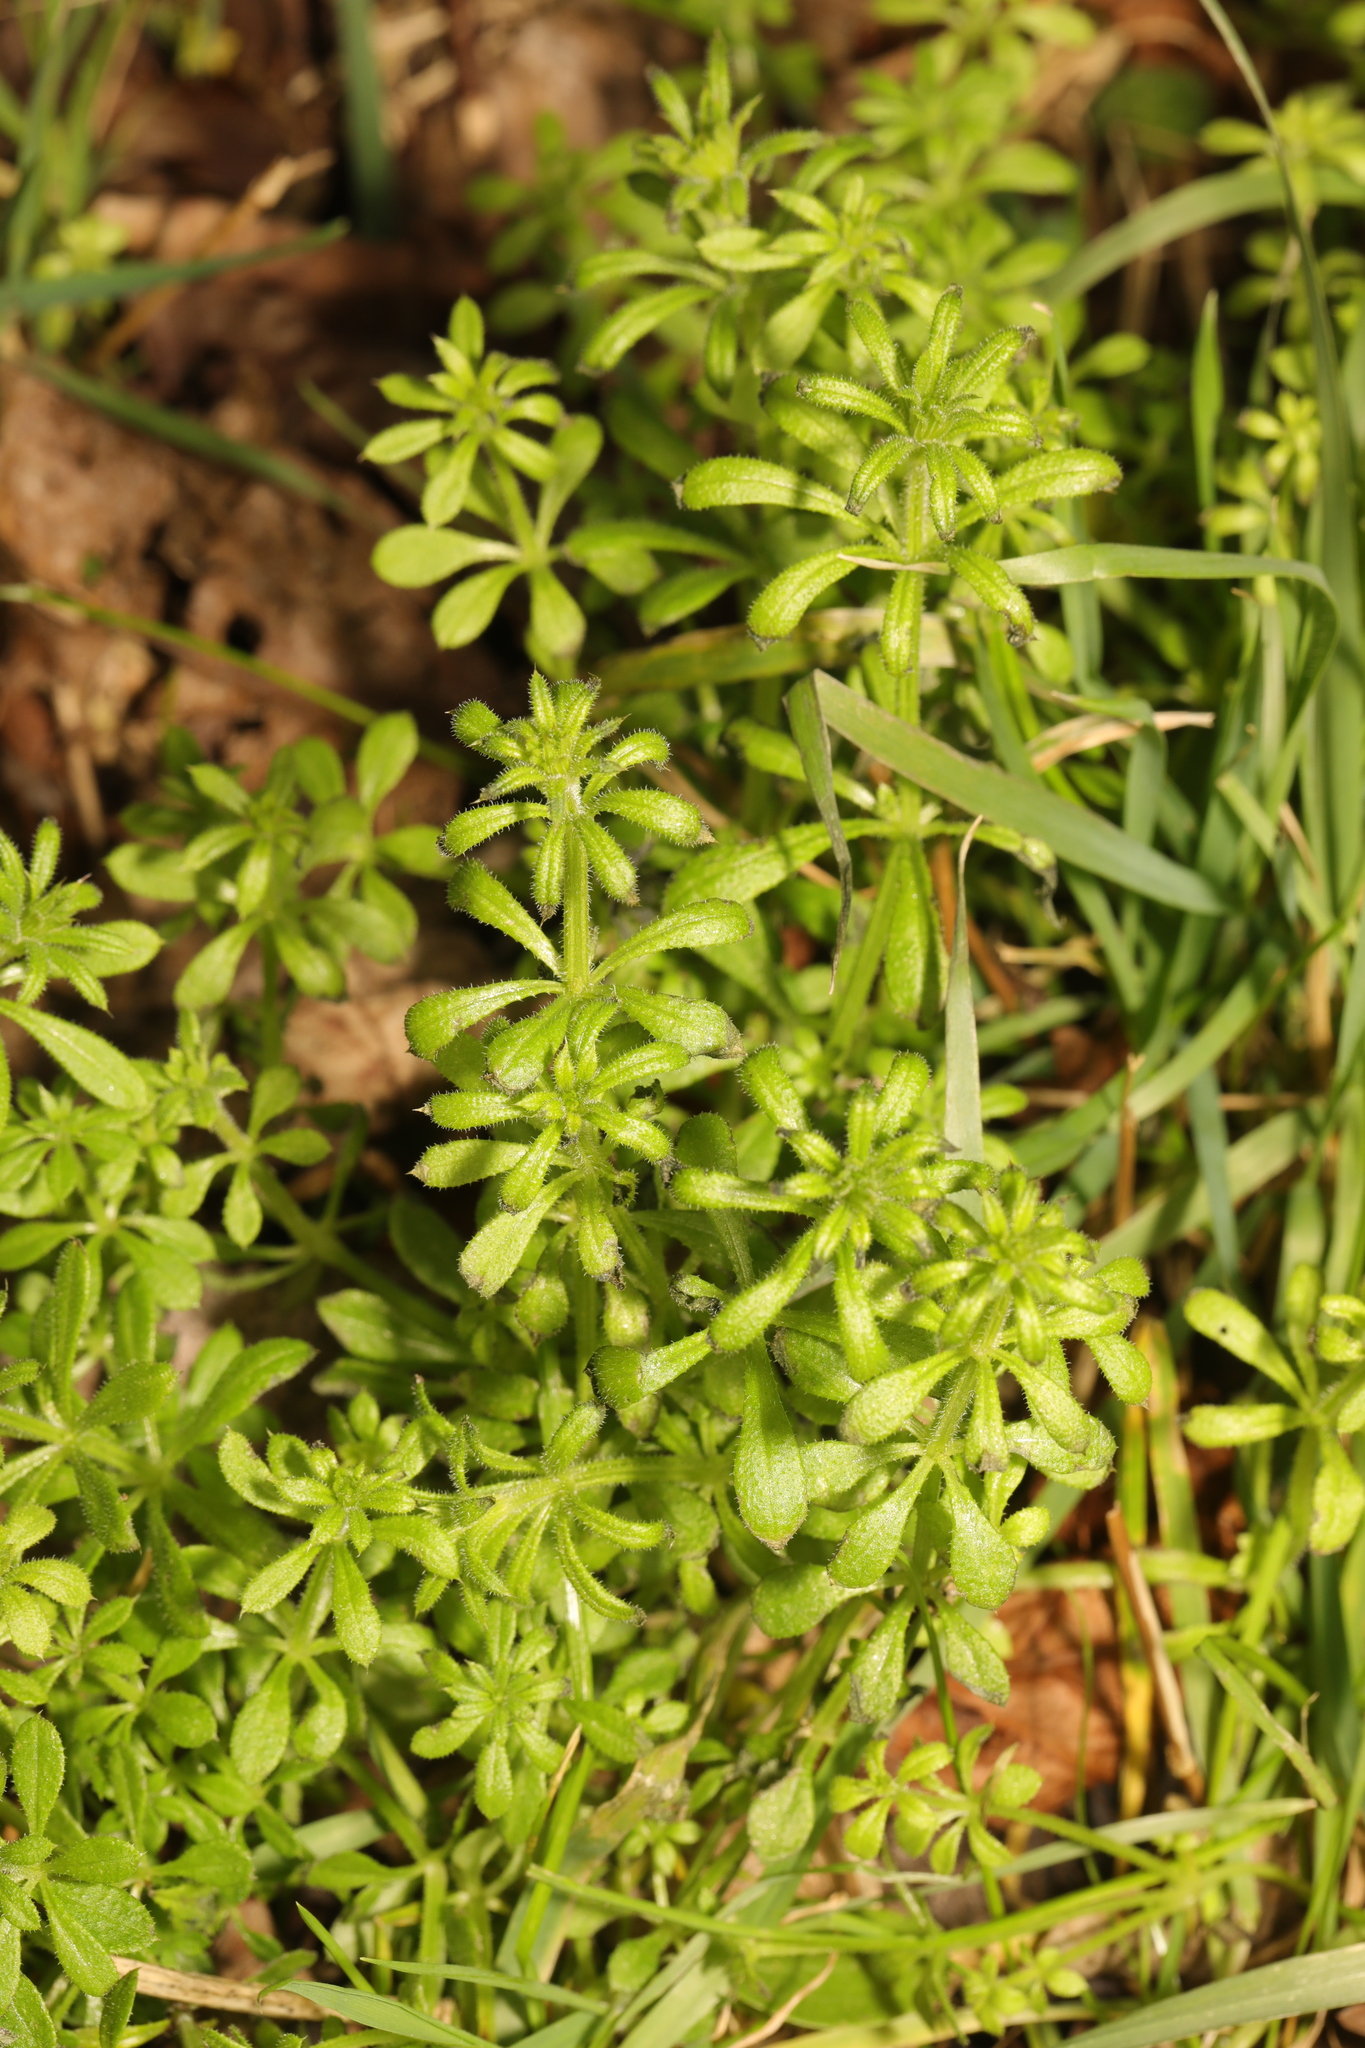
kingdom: Plantae
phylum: Tracheophyta
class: Magnoliopsida
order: Gentianales
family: Rubiaceae
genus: Galium
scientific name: Galium aparine
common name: Cleavers
